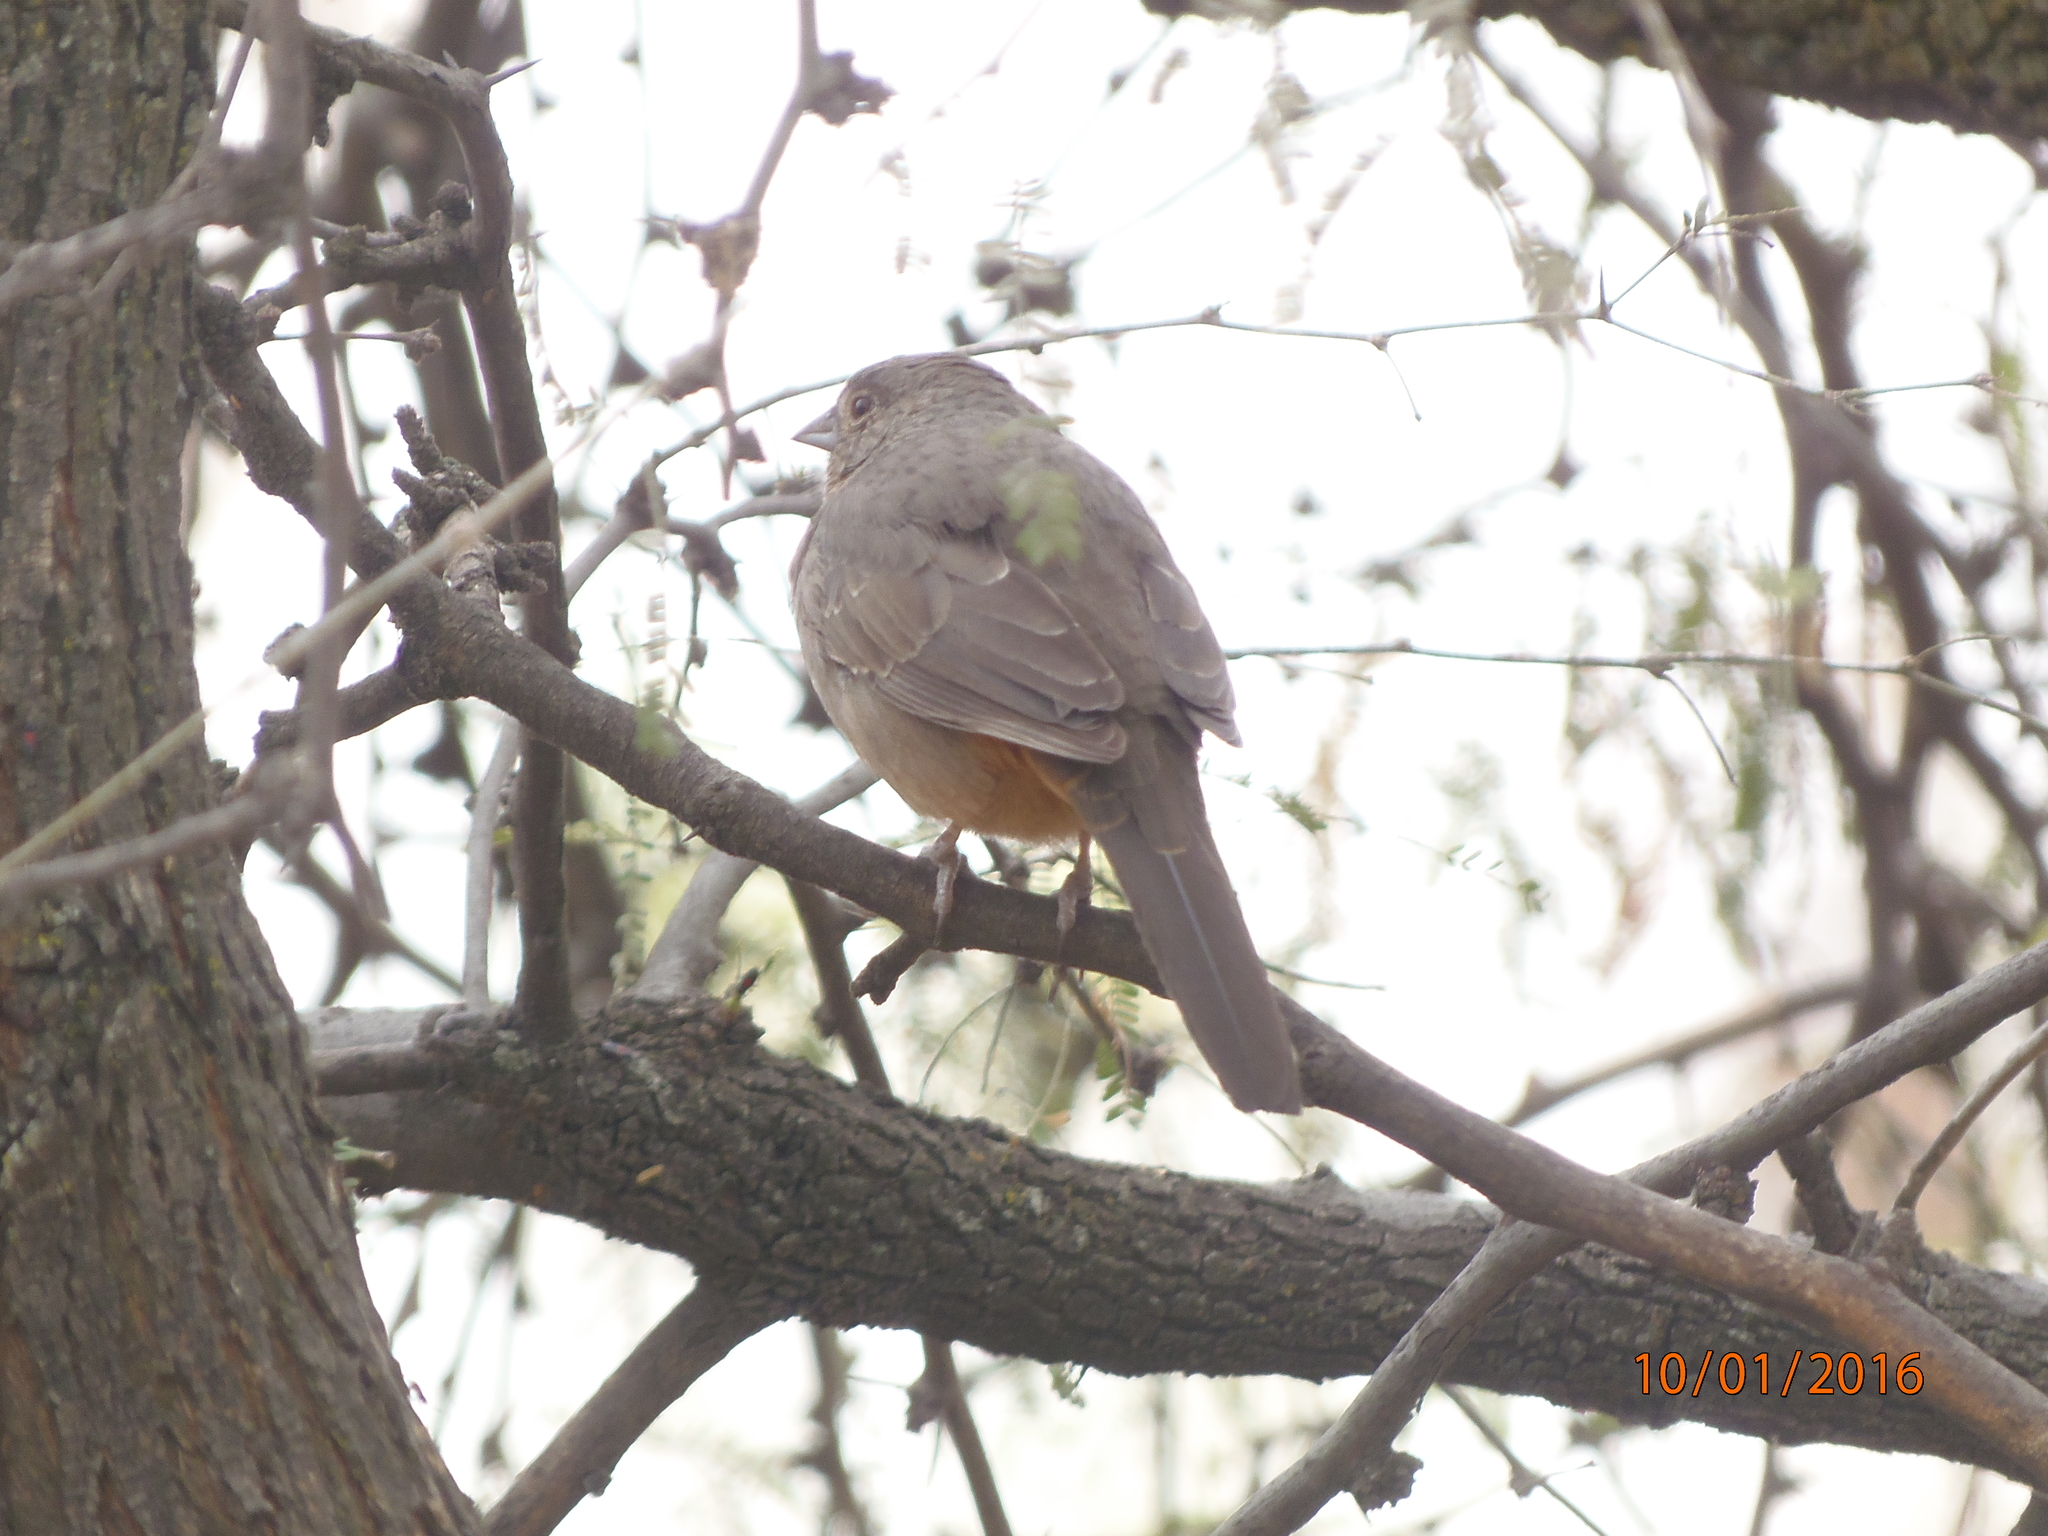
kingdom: Animalia
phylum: Chordata
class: Aves
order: Passeriformes
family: Passerellidae
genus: Melozone
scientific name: Melozone fusca
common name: Canyon towhee
